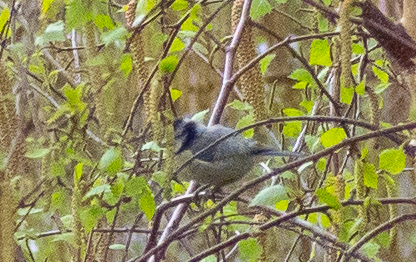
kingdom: Animalia
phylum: Chordata
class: Aves
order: Passeriformes
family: Paridae
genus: Cyanistes
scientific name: Cyanistes caeruleus
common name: Eurasian blue tit
